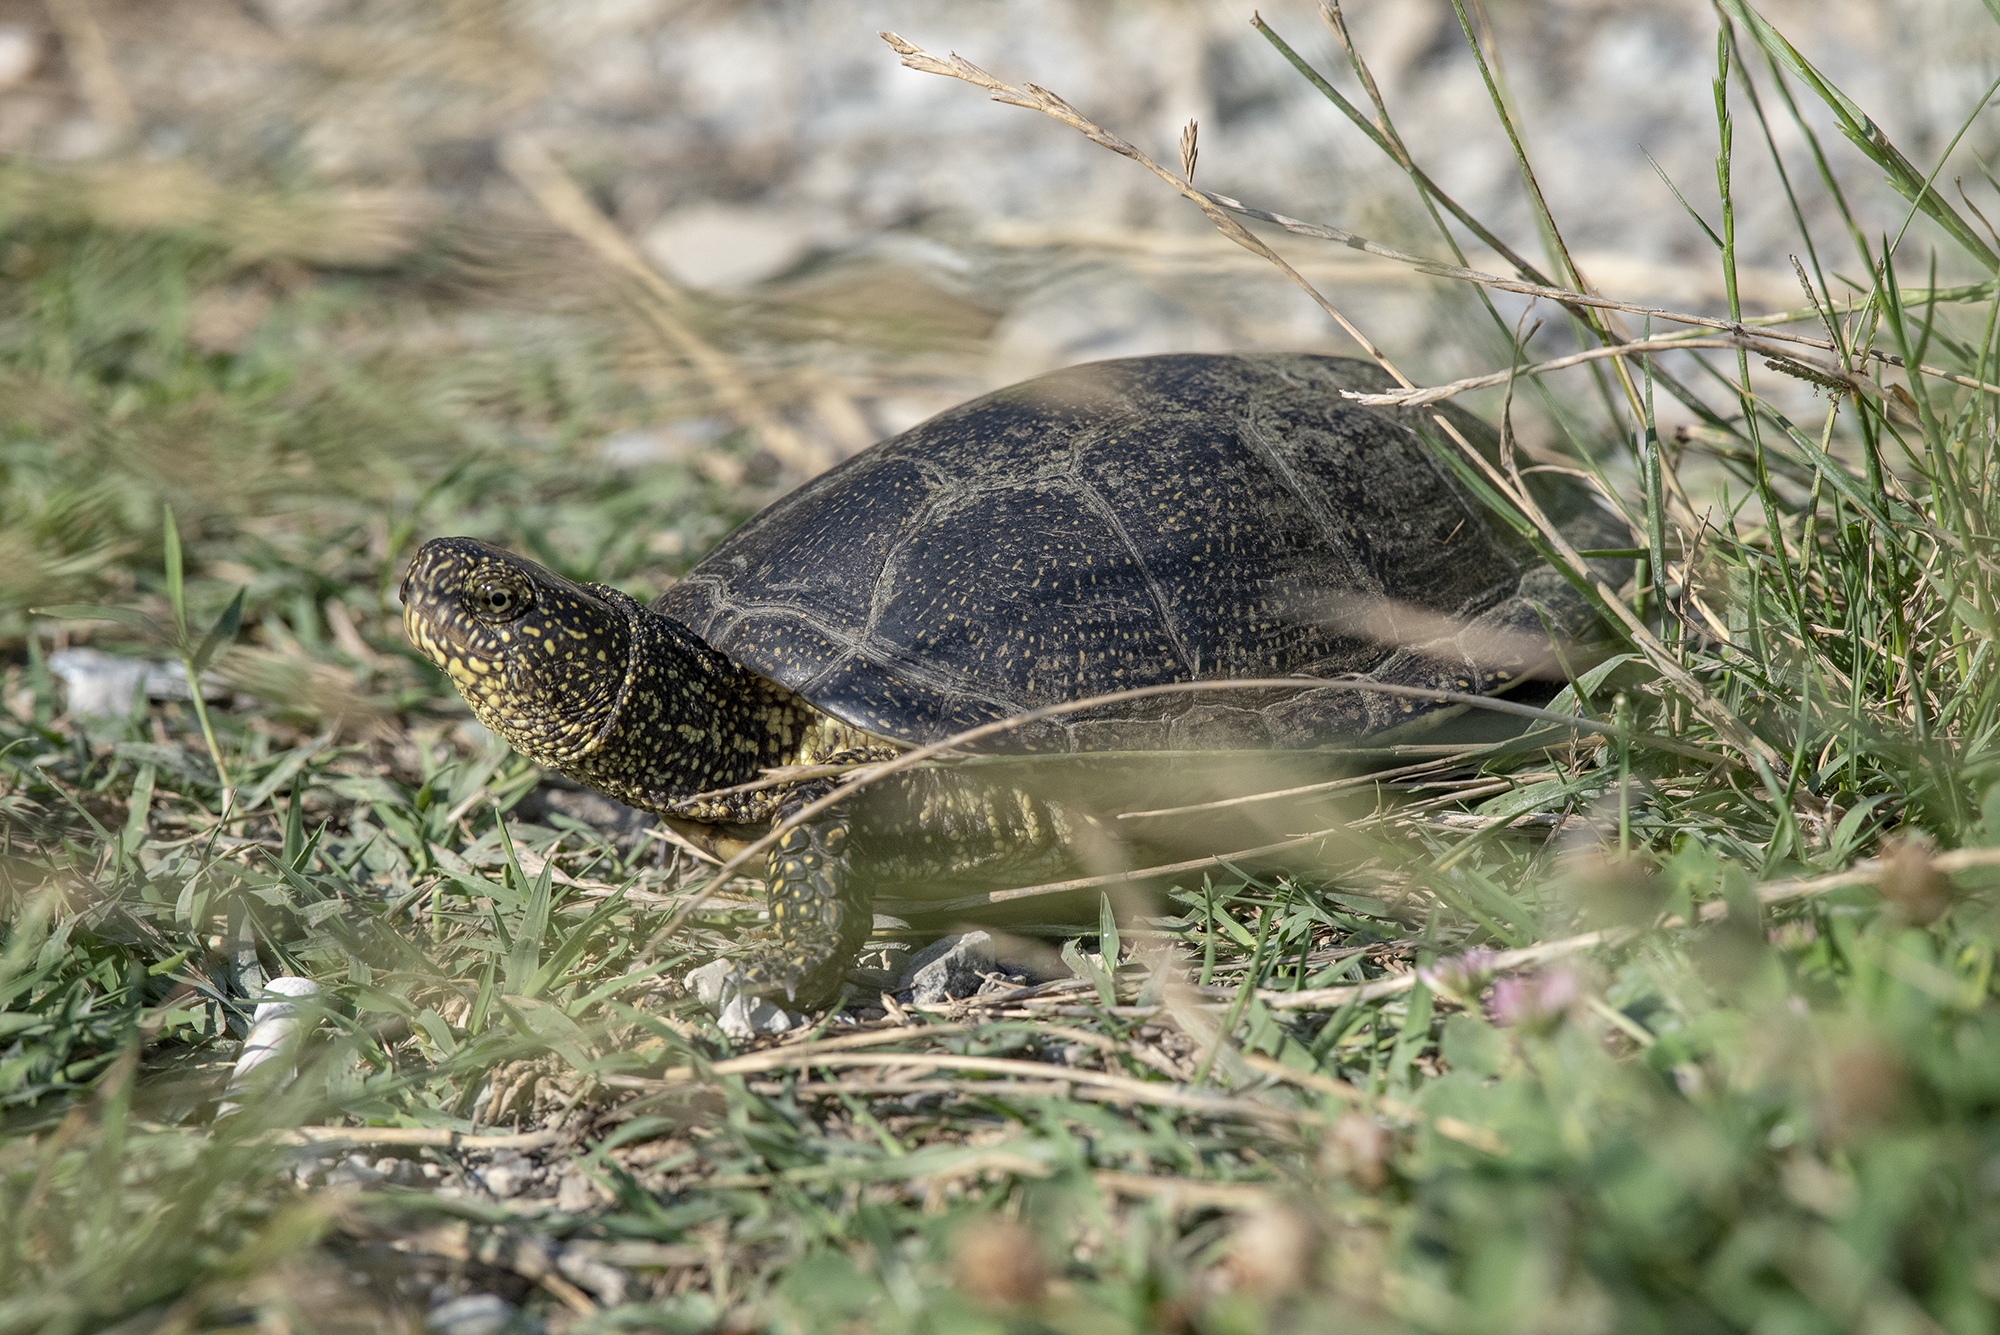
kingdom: Animalia
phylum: Chordata
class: Testudines
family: Emydidae
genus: Emys
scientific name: Emys orbicularis
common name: European pond turtle
